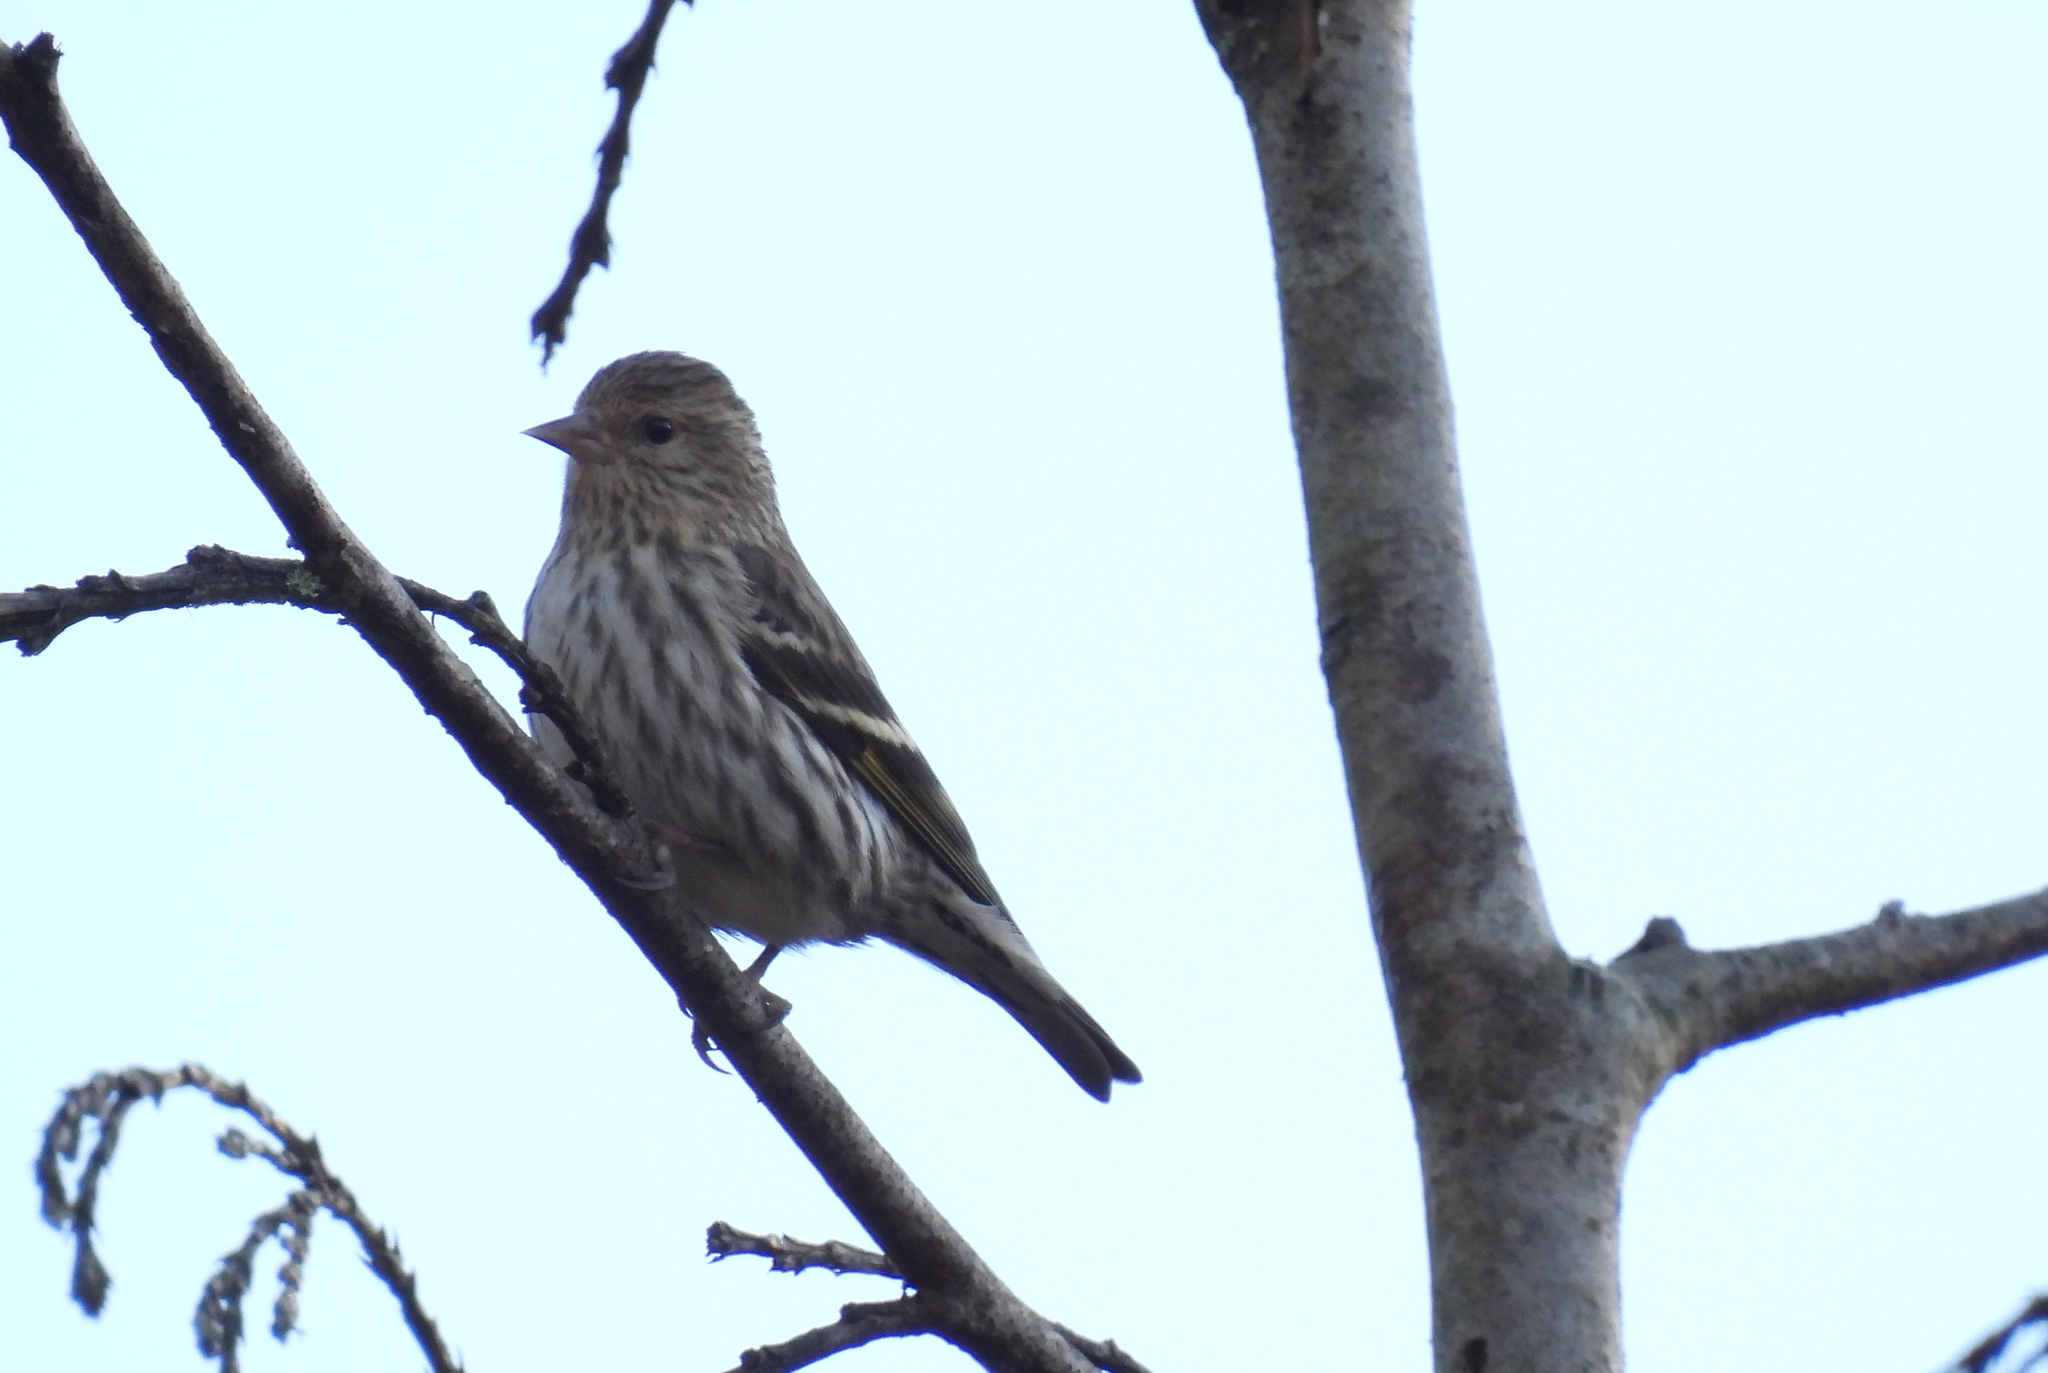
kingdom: Animalia
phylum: Chordata
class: Aves
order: Passeriformes
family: Fringillidae
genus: Spinus
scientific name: Spinus pinus
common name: Pine siskin
